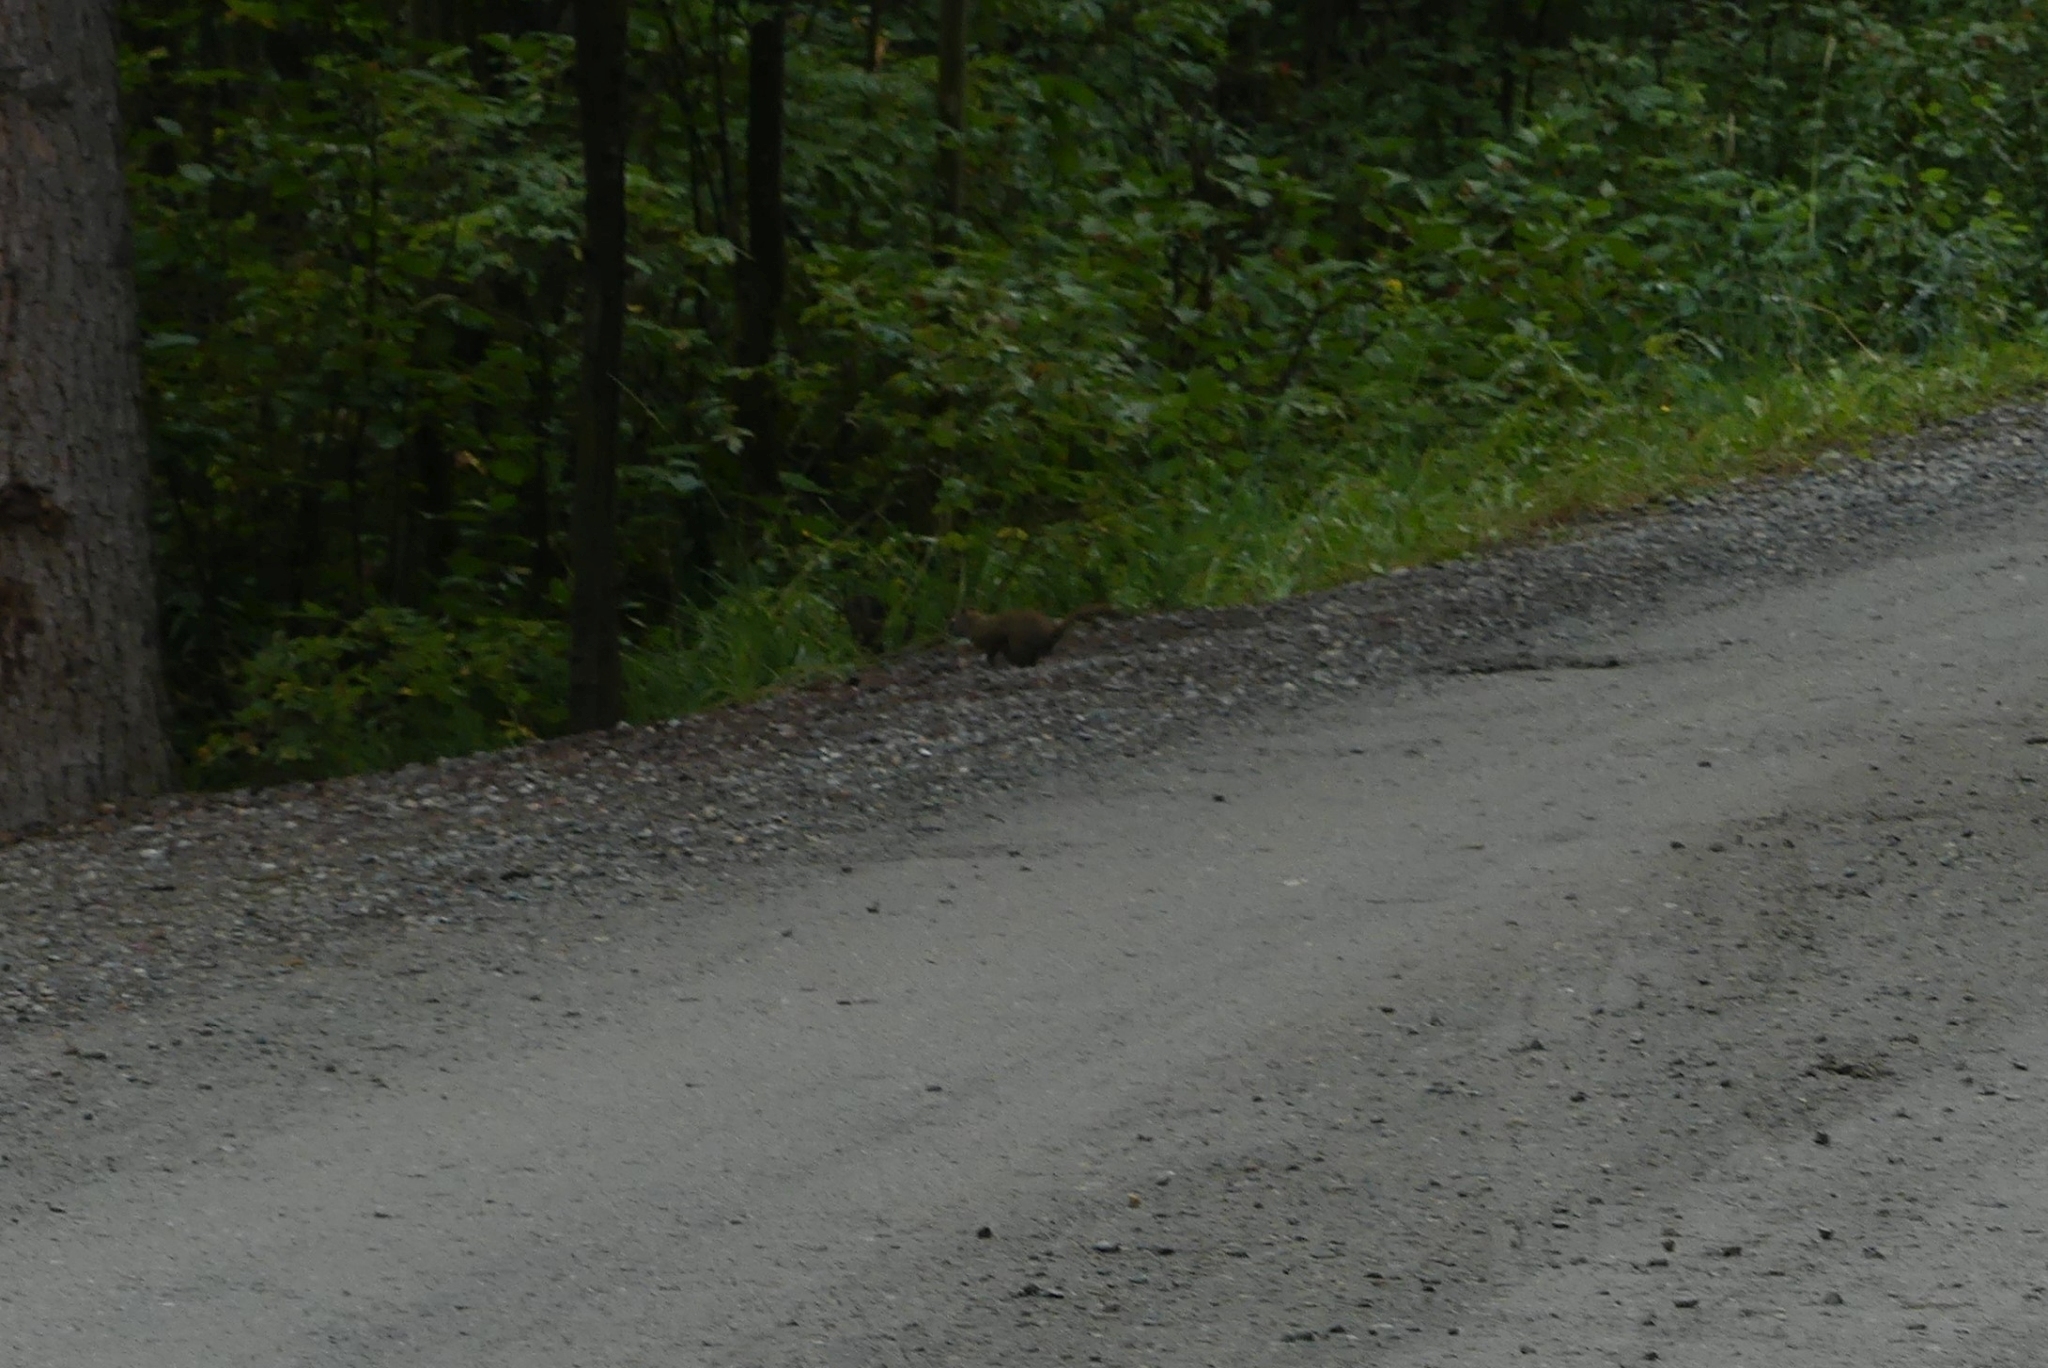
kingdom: Animalia
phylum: Chordata
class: Mammalia
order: Rodentia
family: Sciuridae
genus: Tamiasciurus
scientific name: Tamiasciurus hudsonicus
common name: Red squirrel
